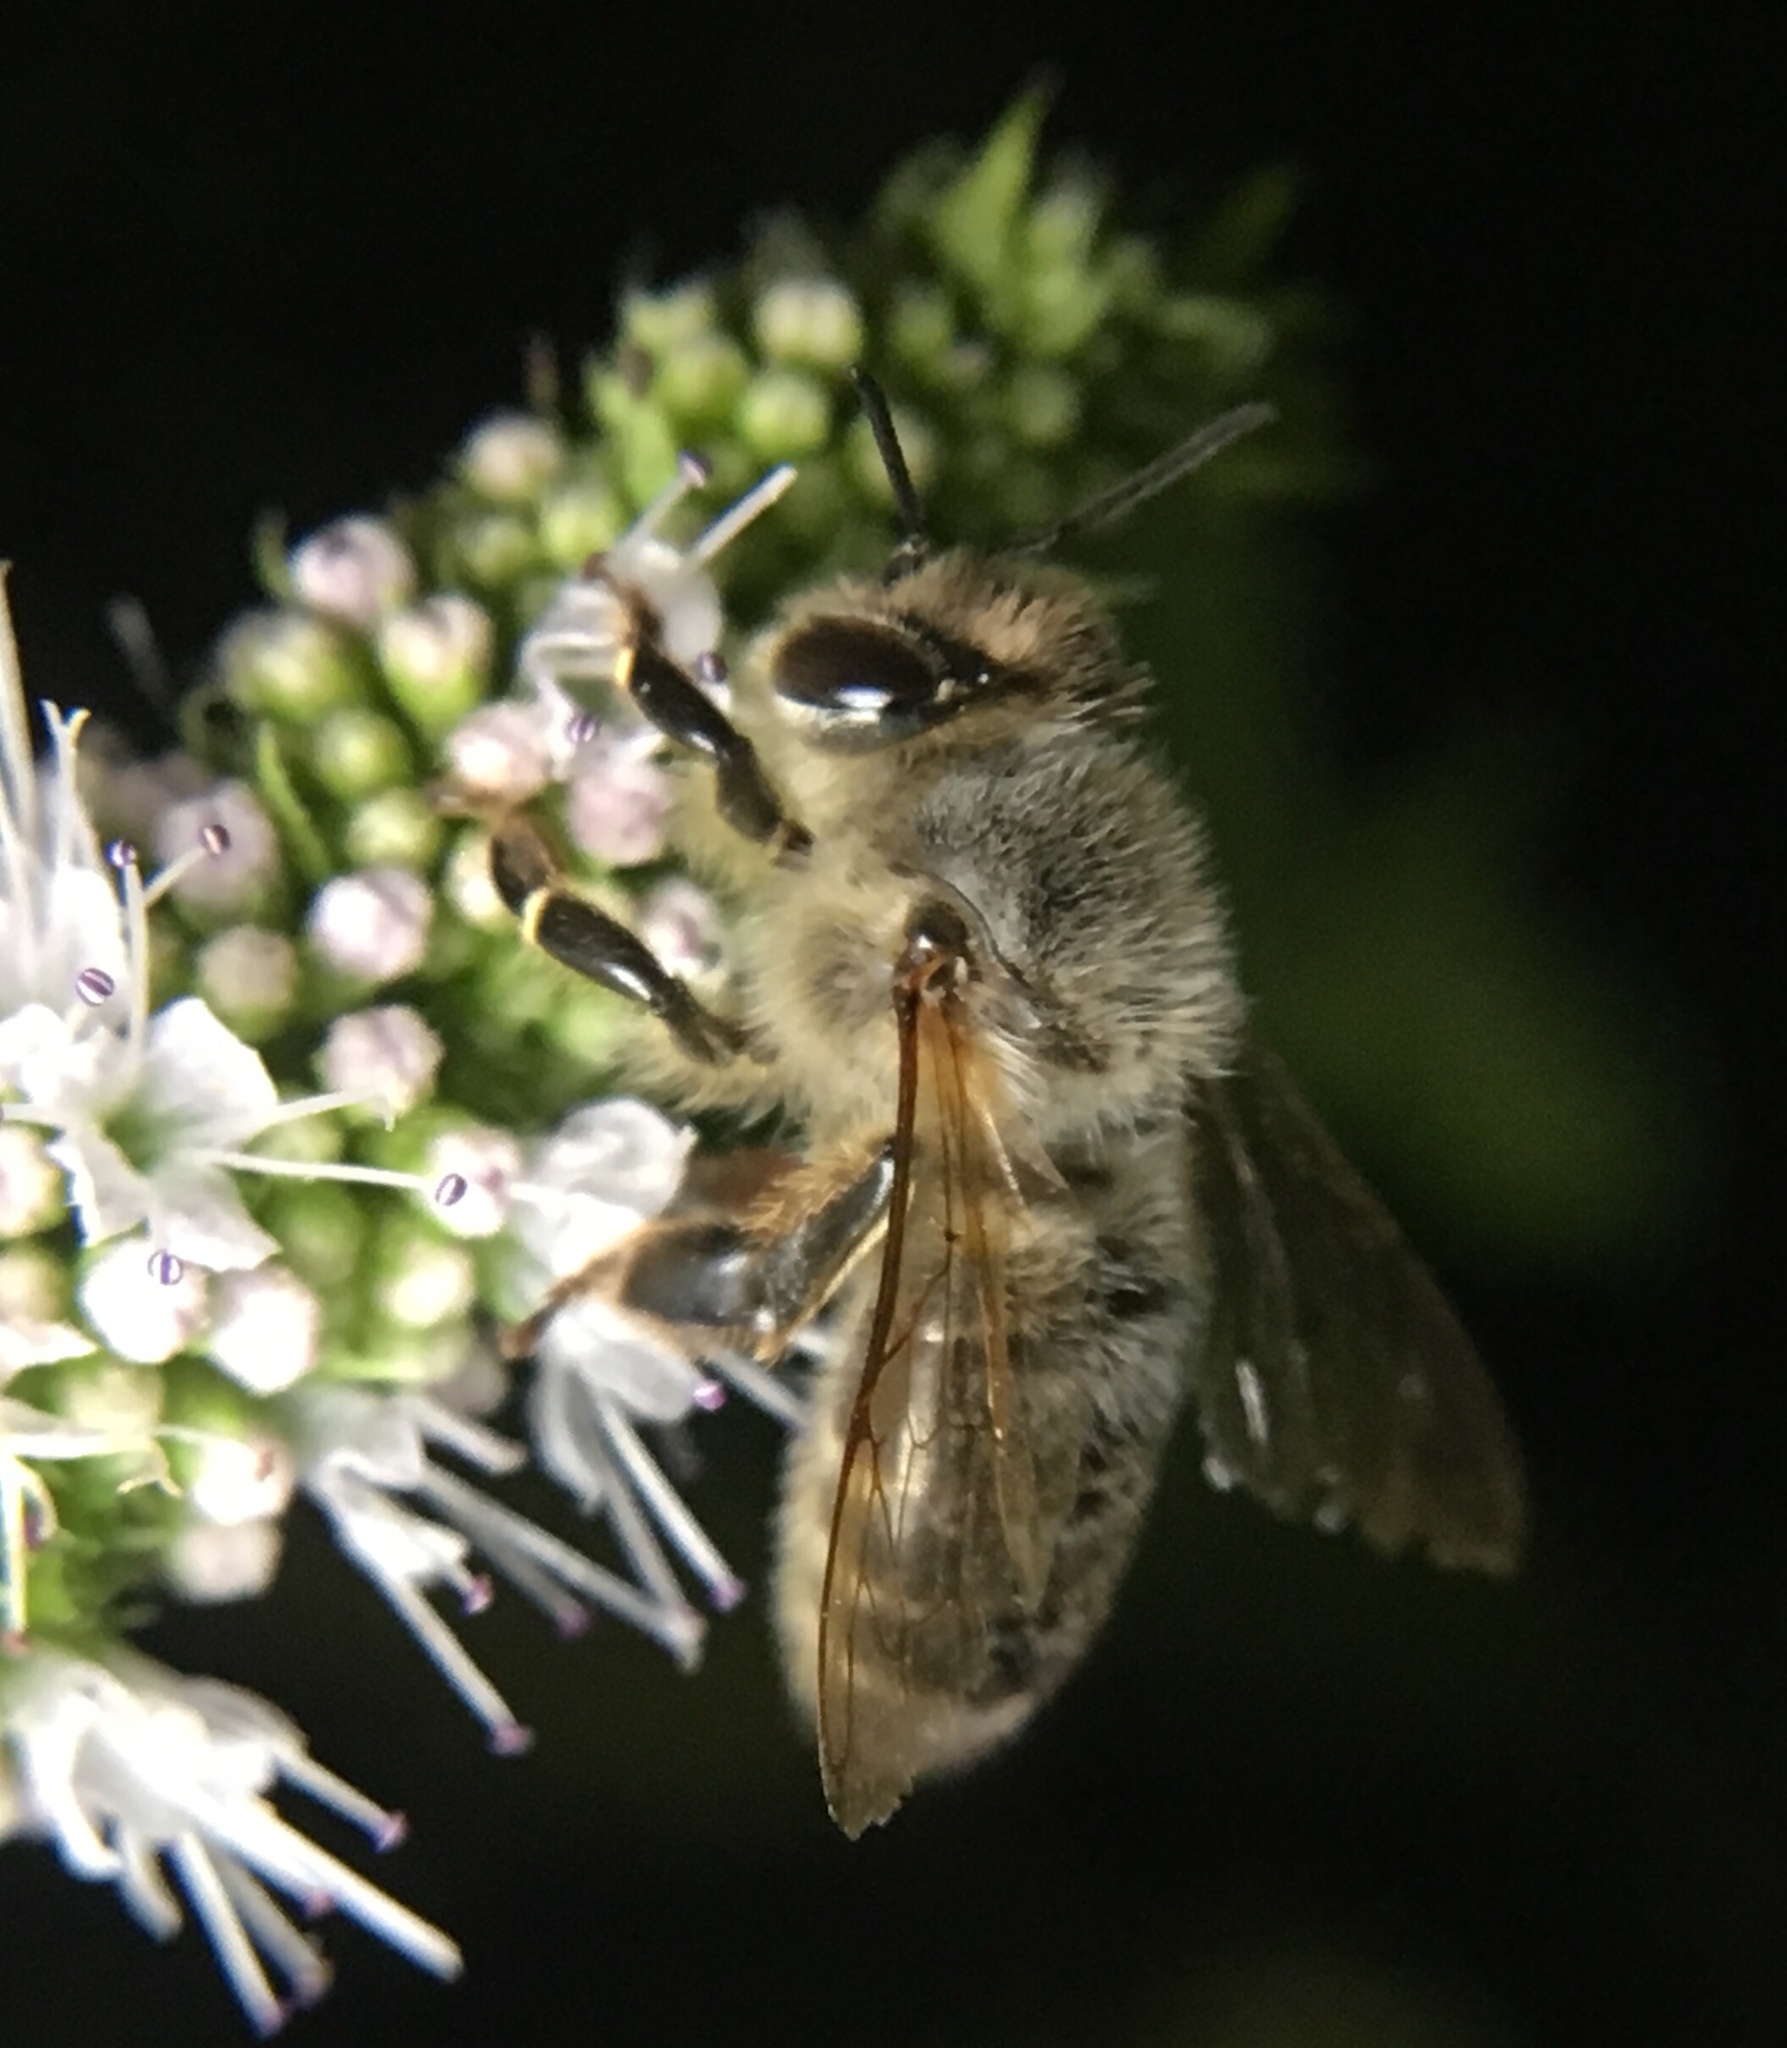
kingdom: Animalia
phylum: Arthropoda
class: Insecta
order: Hymenoptera
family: Apidae
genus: Apis
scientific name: Apis mellifera
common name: Honey bee
